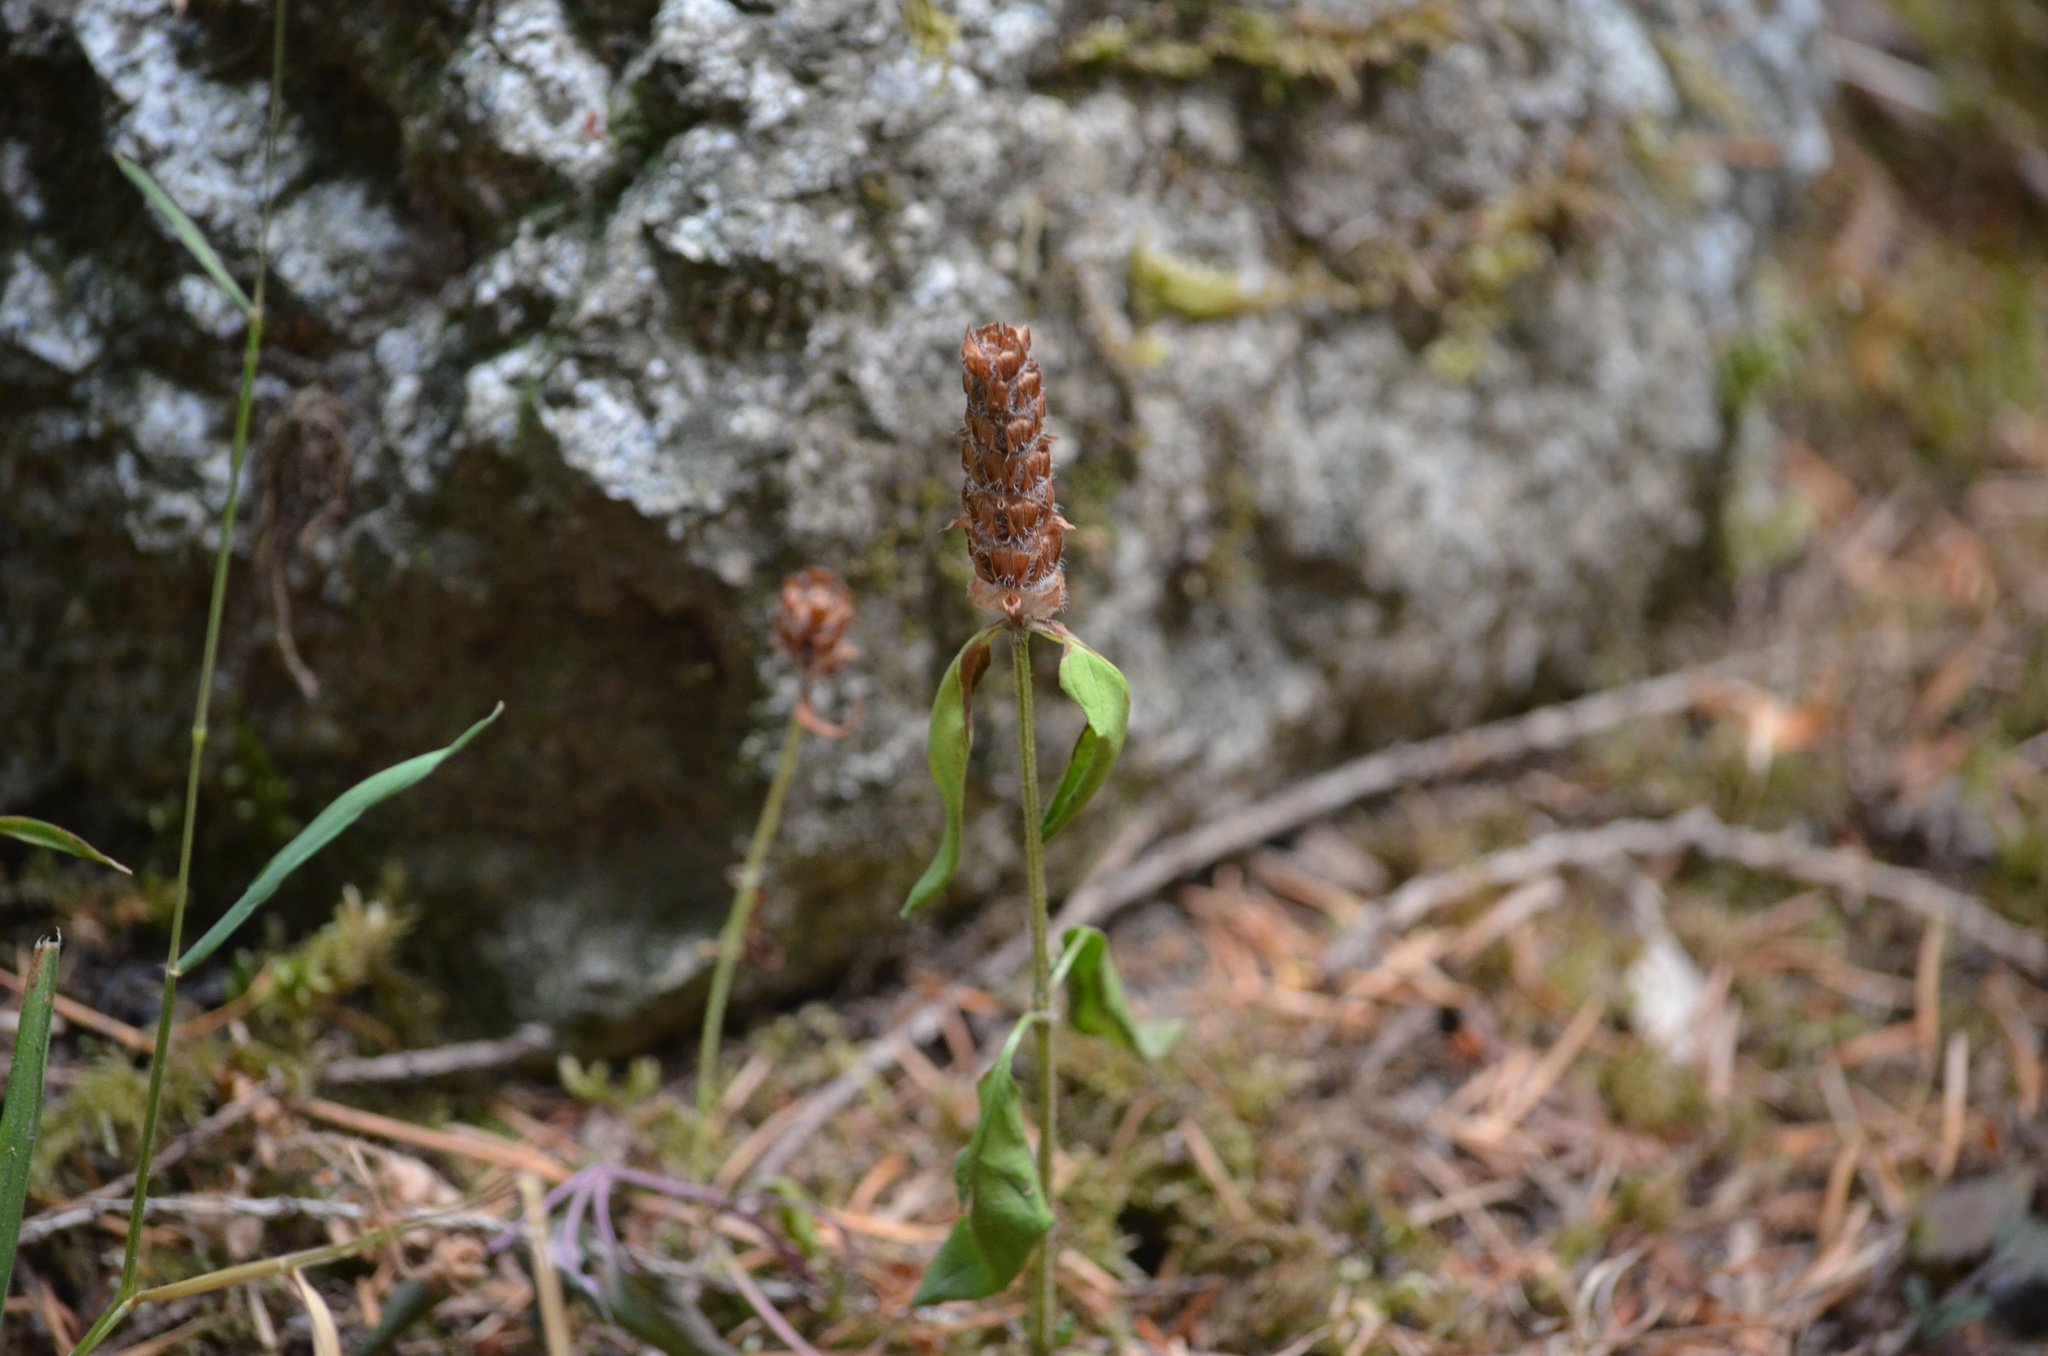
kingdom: Plantae
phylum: Tracheophyta
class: Magnoliopsida
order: Lamiales
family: Lamiaceae
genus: Prunella
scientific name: Prunella vulgaris
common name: Heal-all
